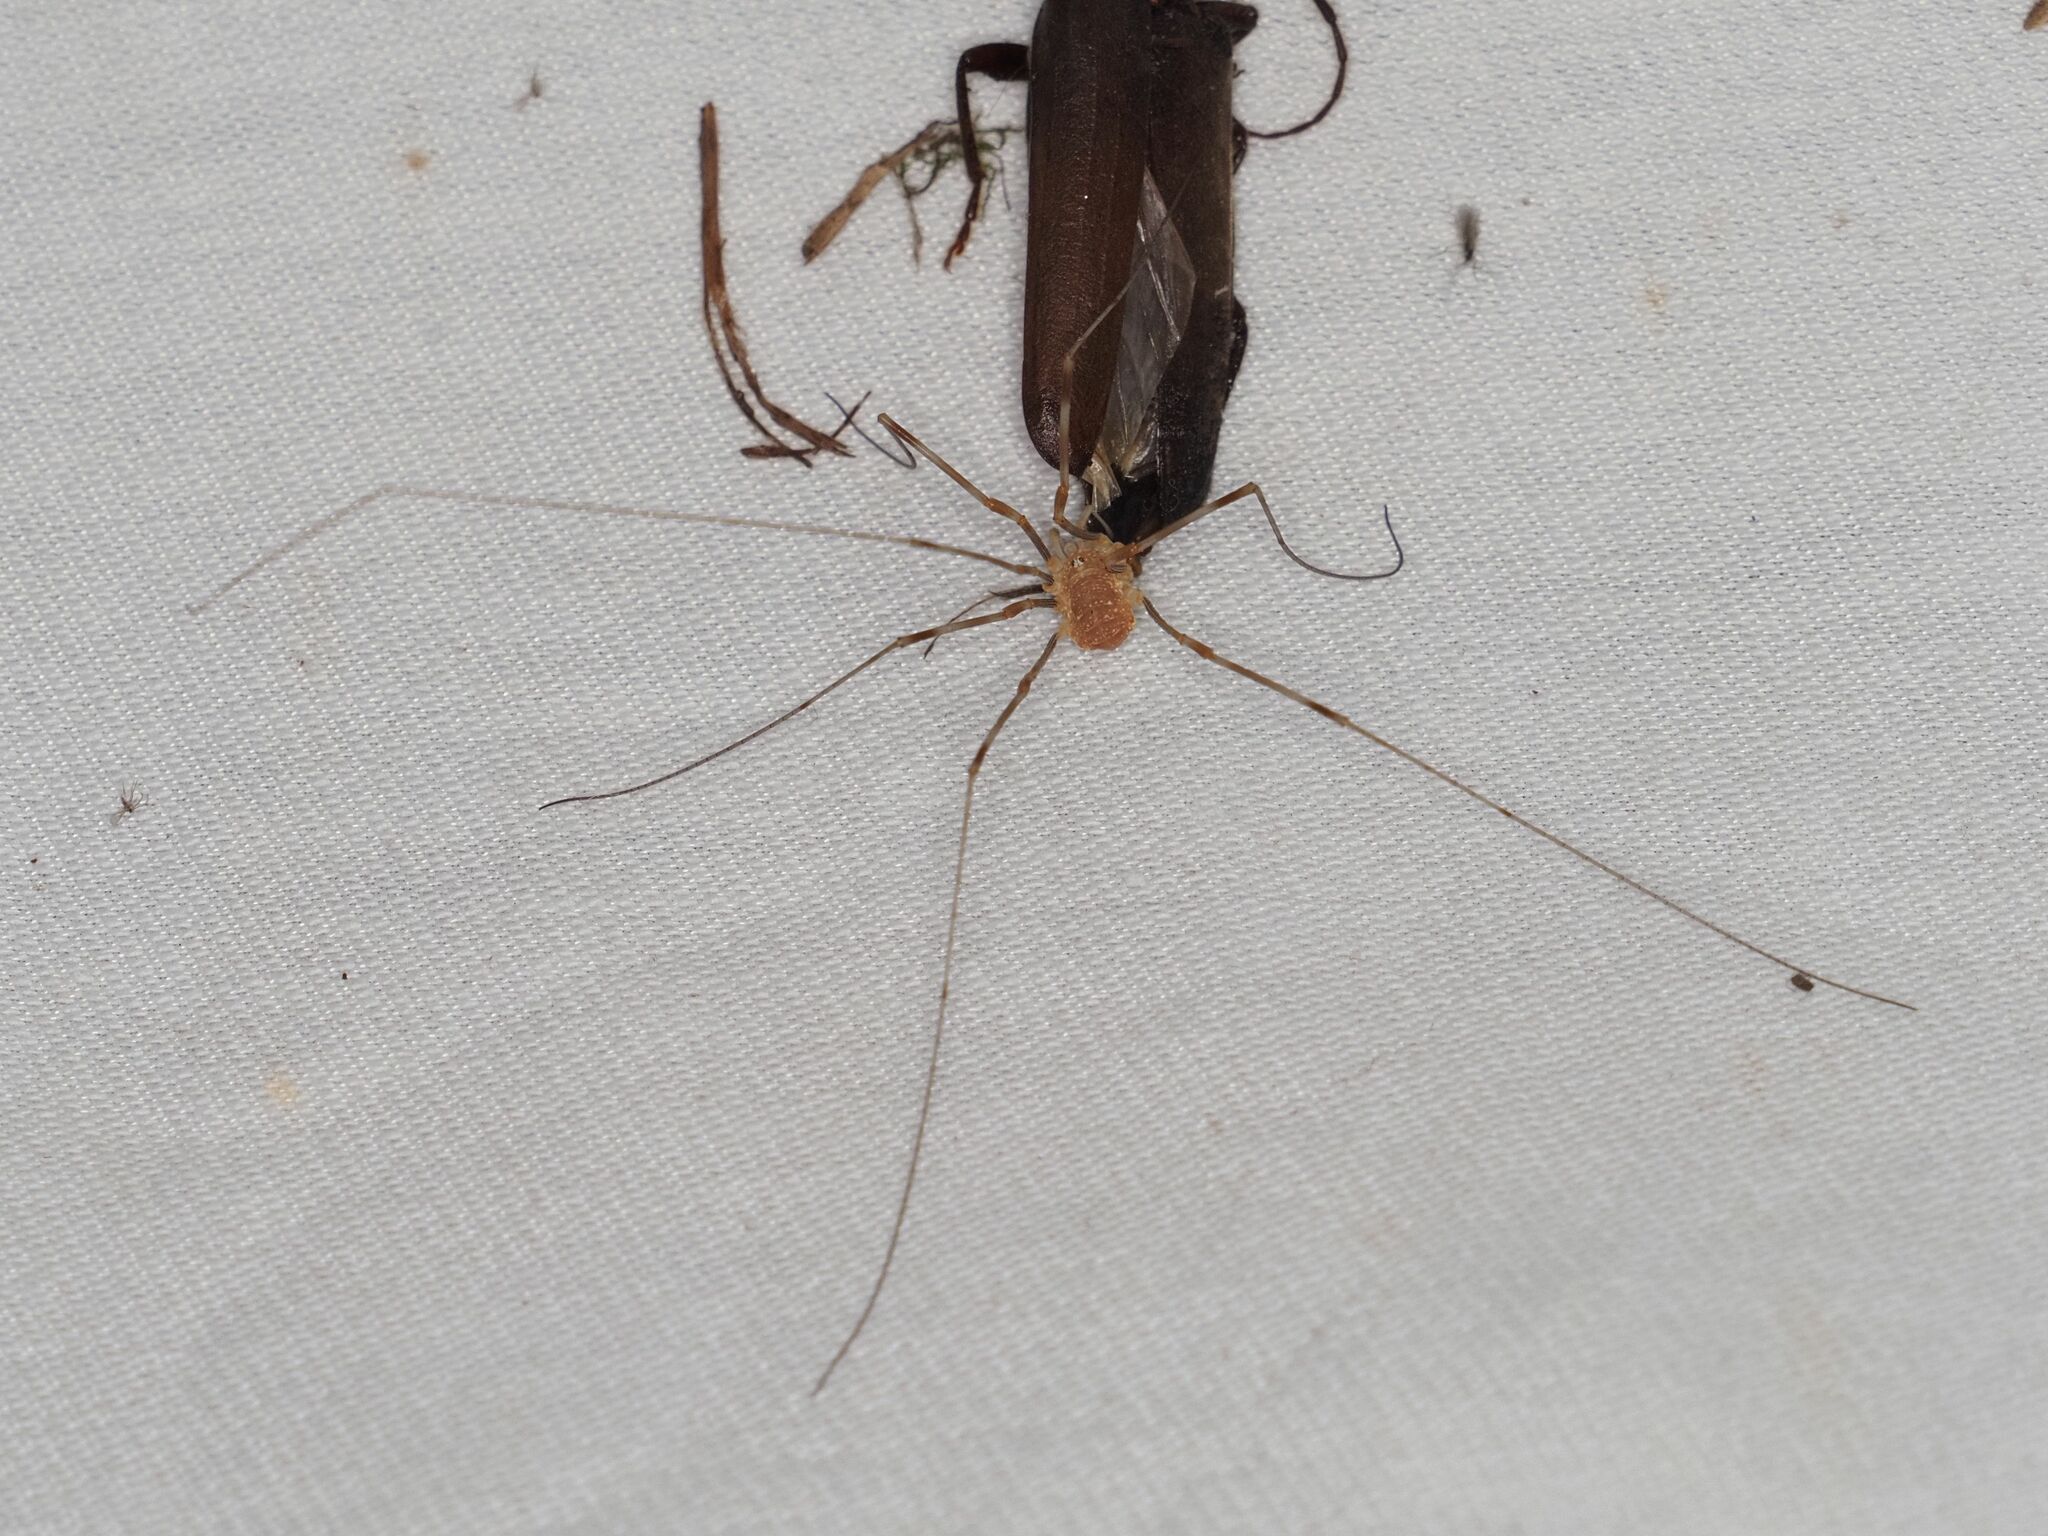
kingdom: Animalia
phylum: Arthropoda
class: Arachnida
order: Opiliones
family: Phalangiidae
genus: Opilio
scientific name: Opilio canestrinii
